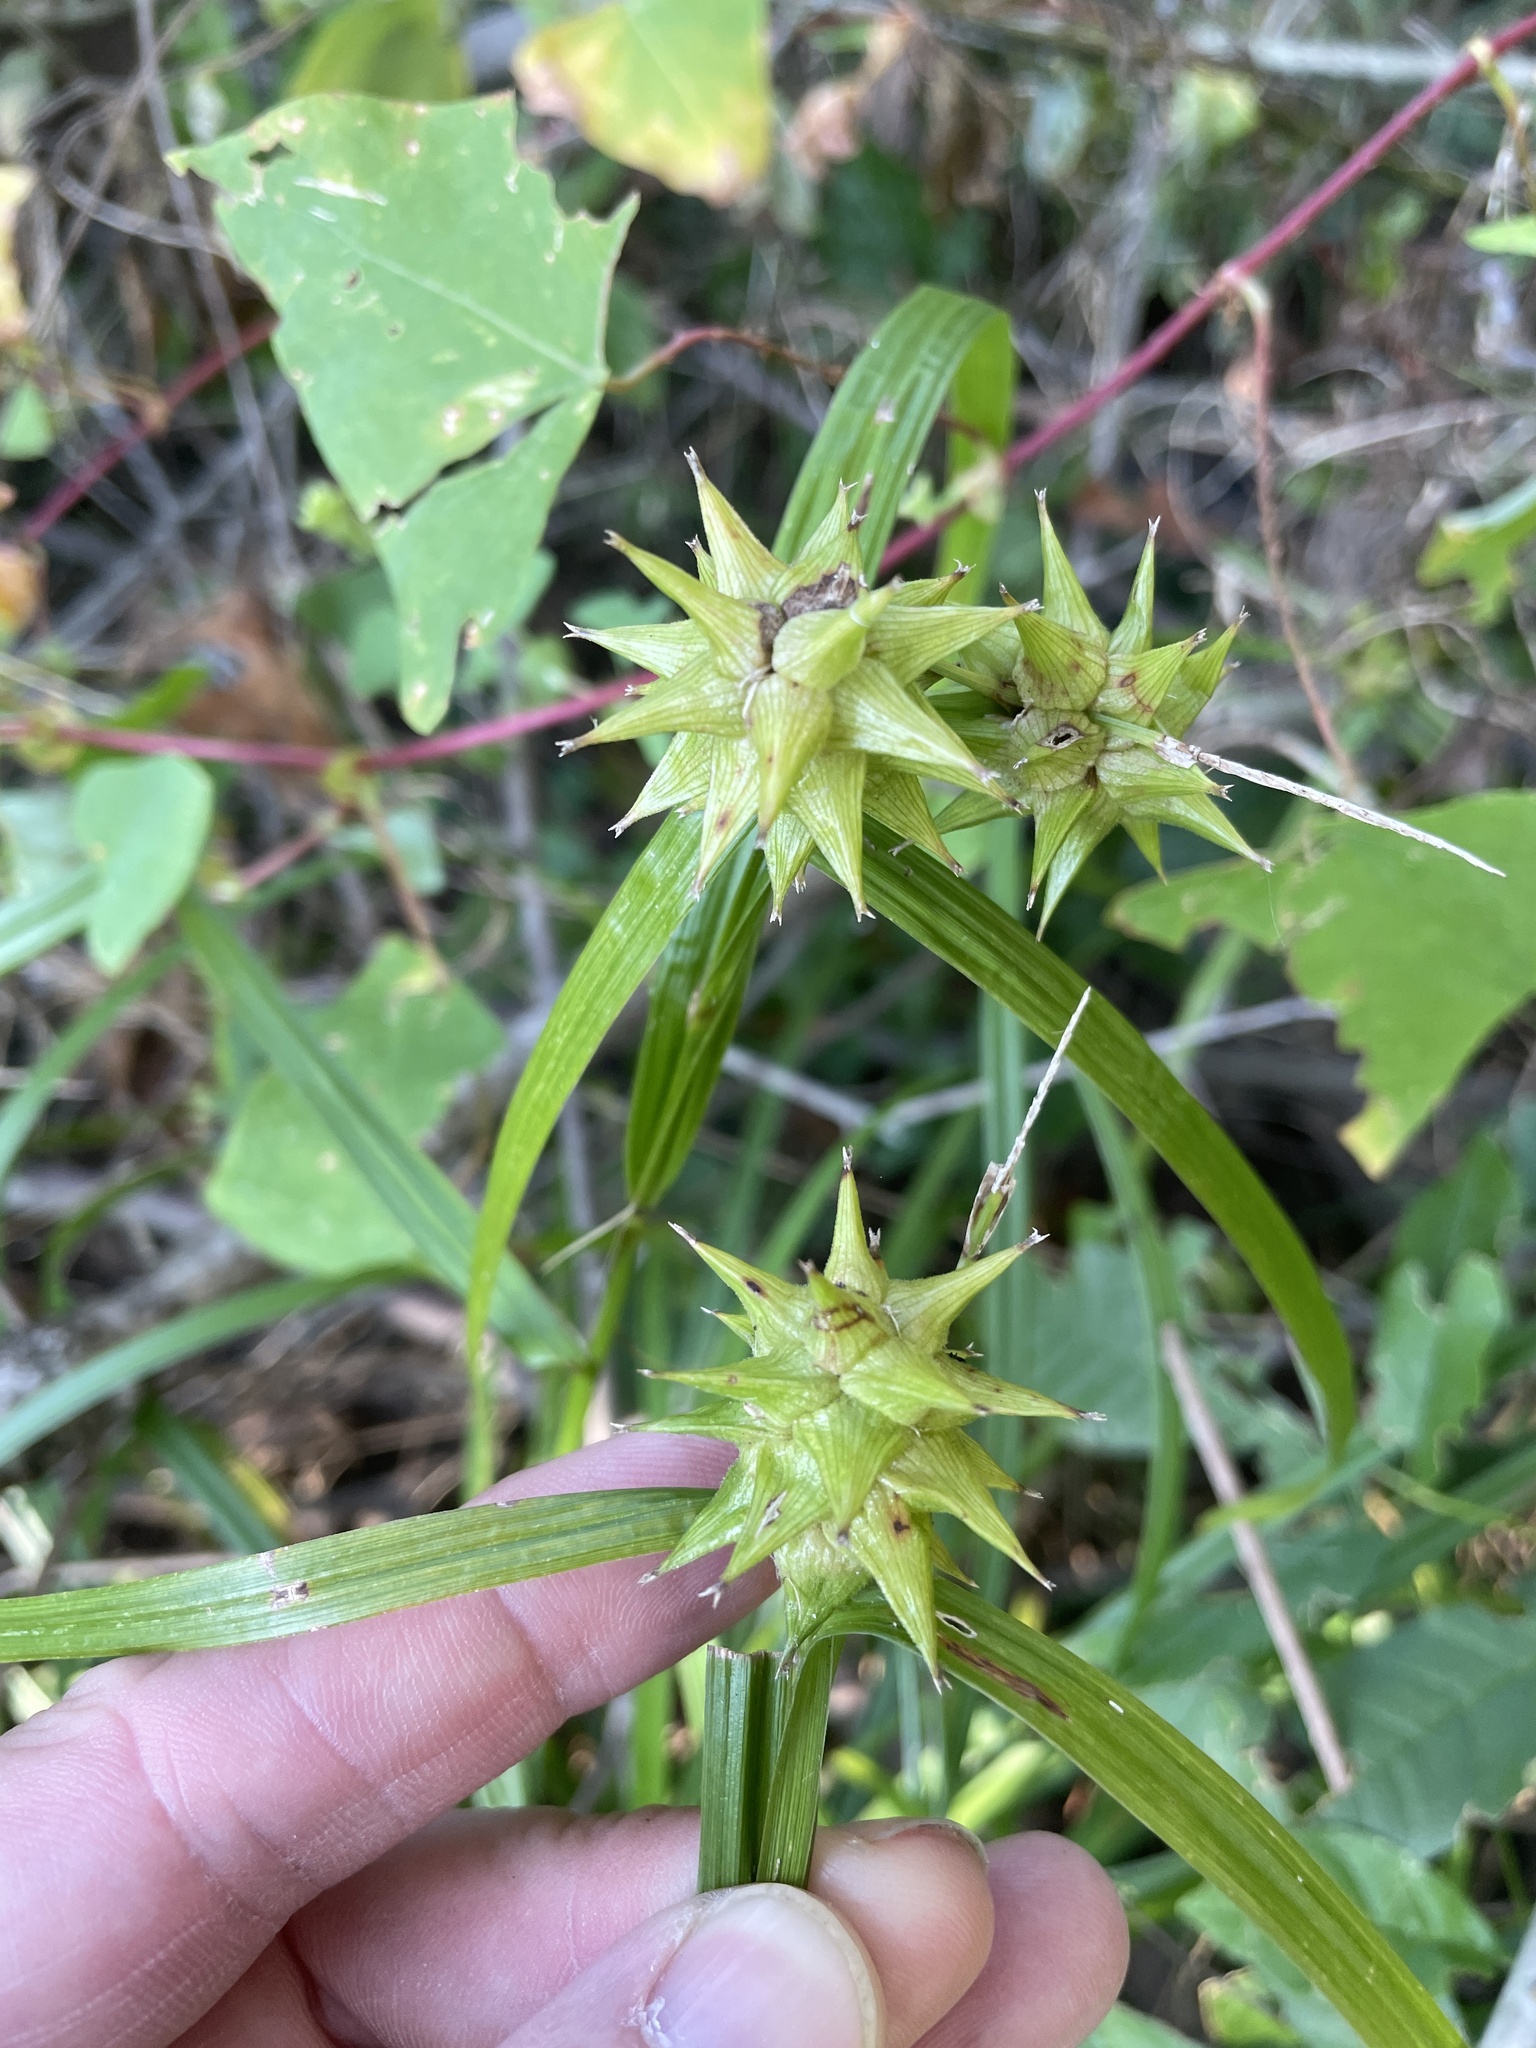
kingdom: Plantae
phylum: Tracheophyta
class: Liliopsida
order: Poales
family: Cyperaceae
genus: Carex
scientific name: Carex grayi
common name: Asa gray's sedge
